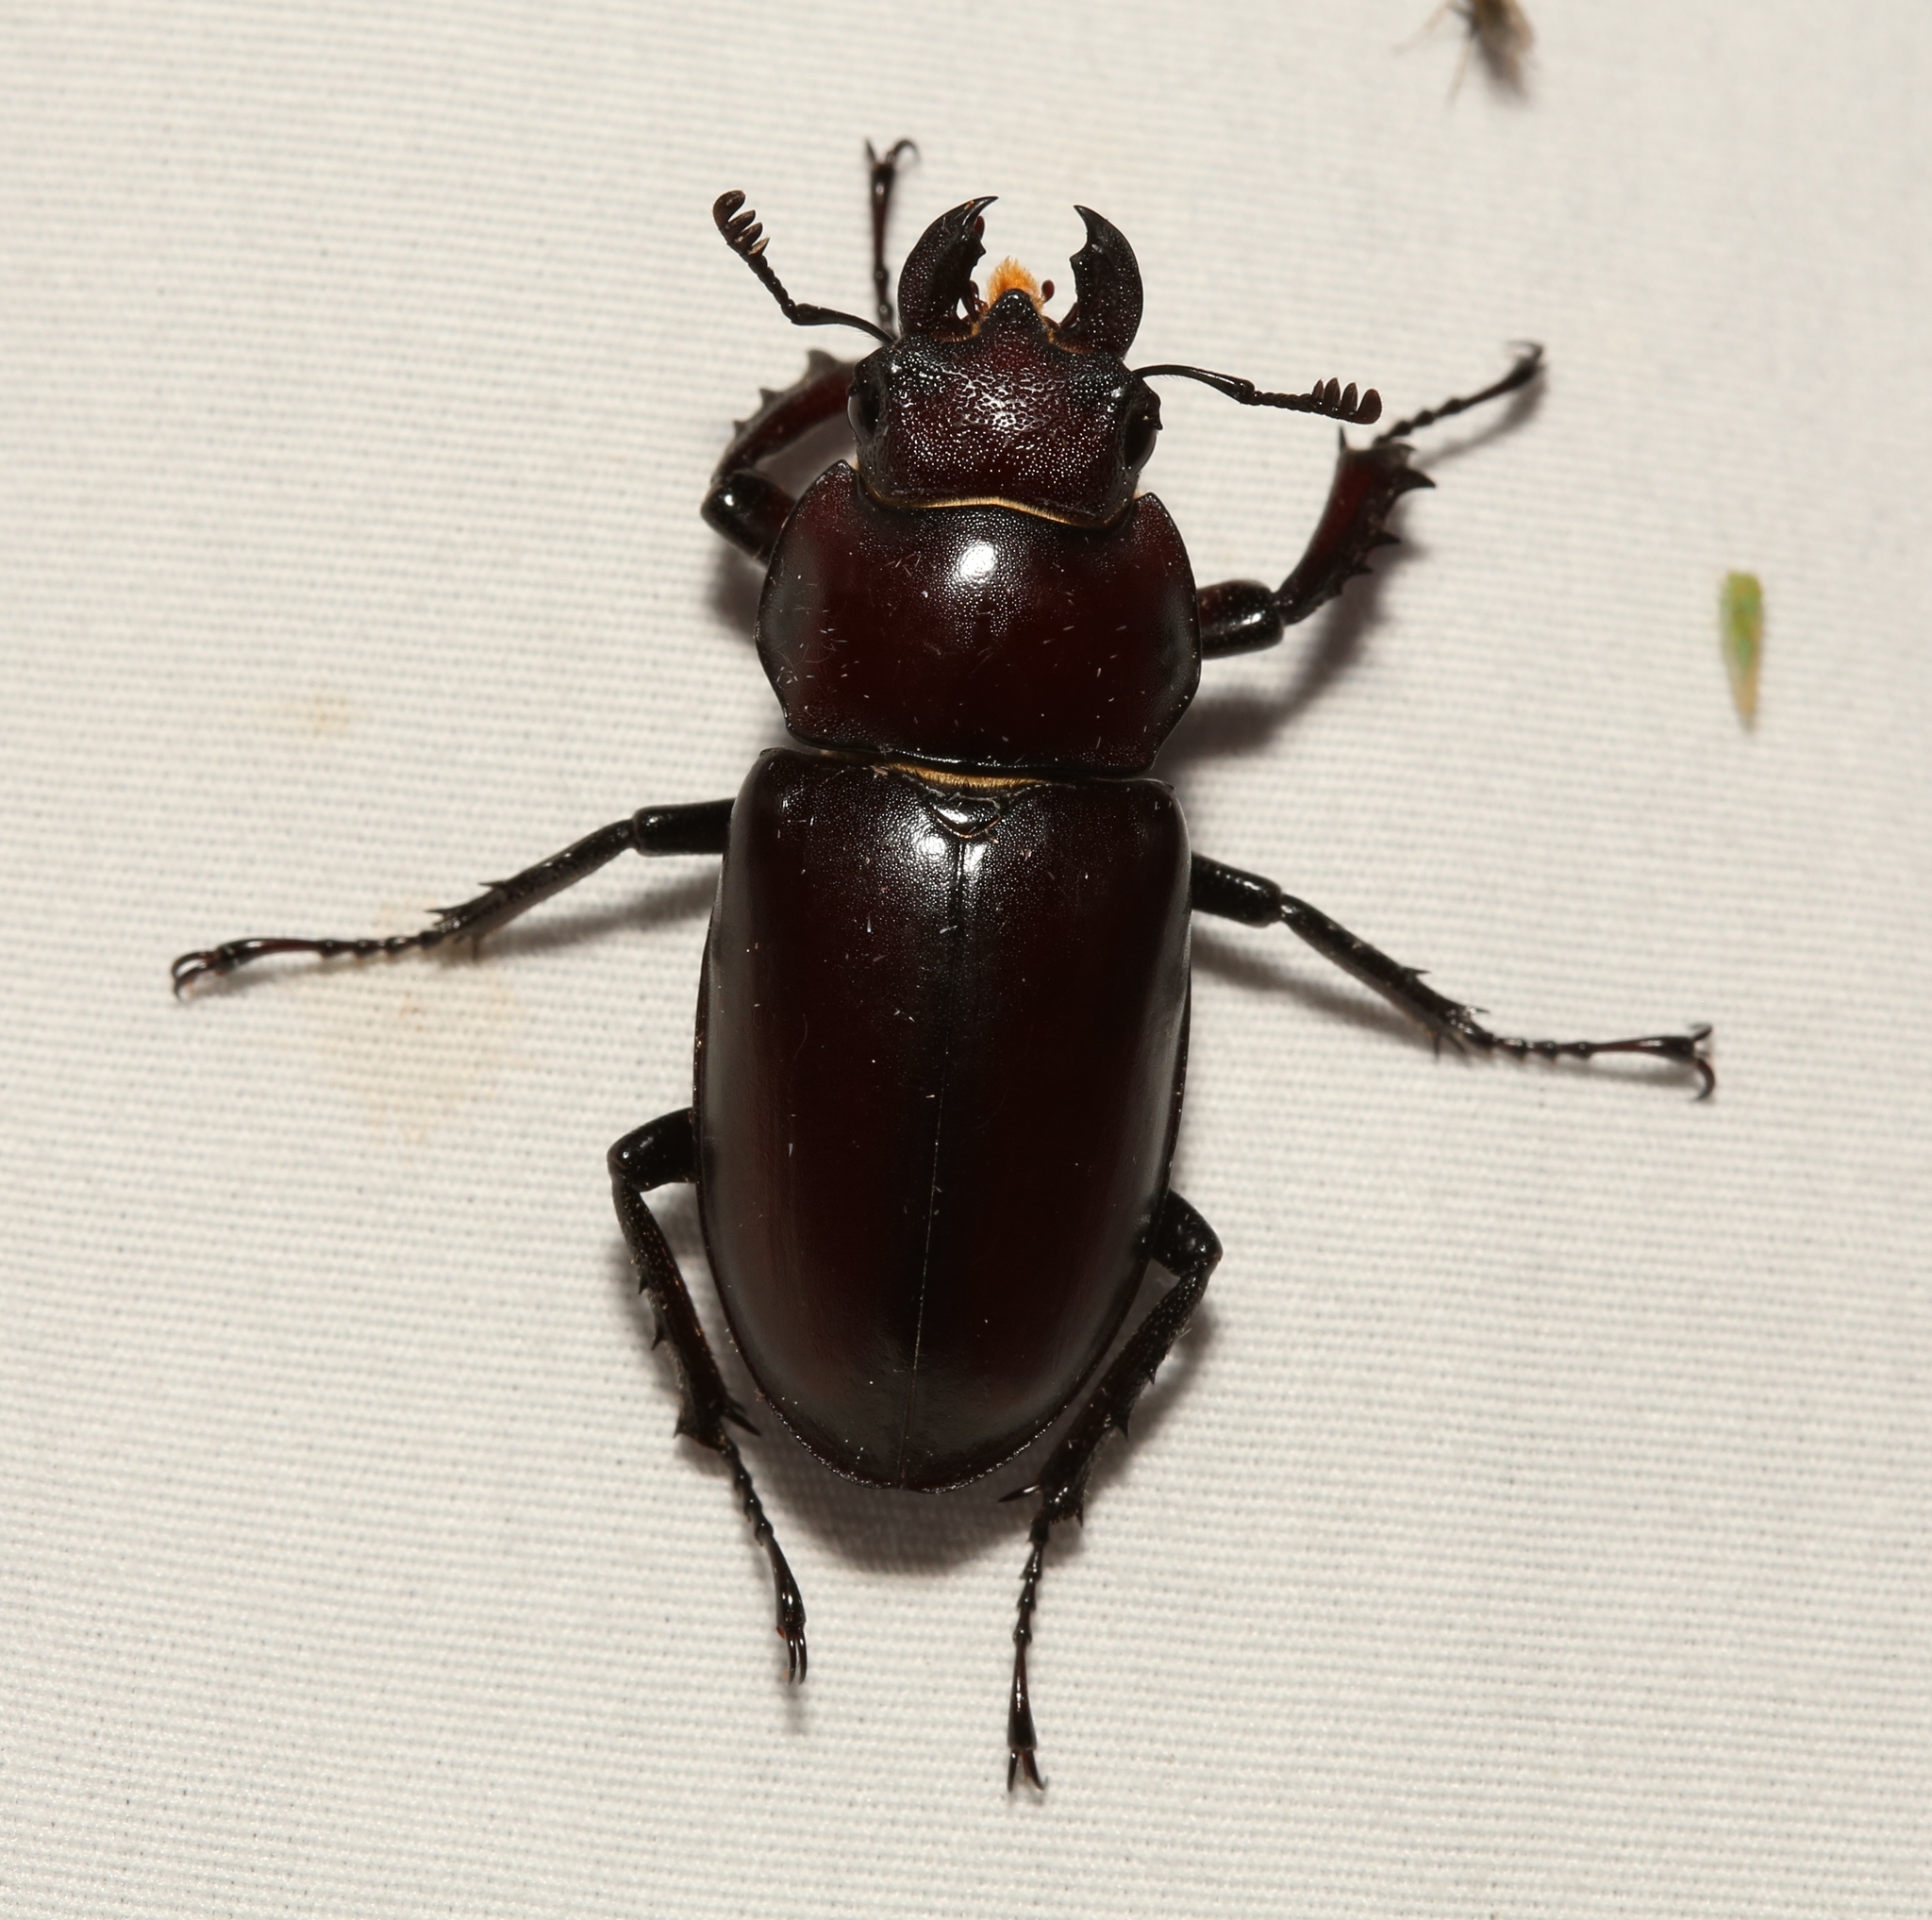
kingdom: Animalia
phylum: Arthropoda
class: Insecta
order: Coleoptera
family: Lucanidae
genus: Lucanus
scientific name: Lucanus elaphus
